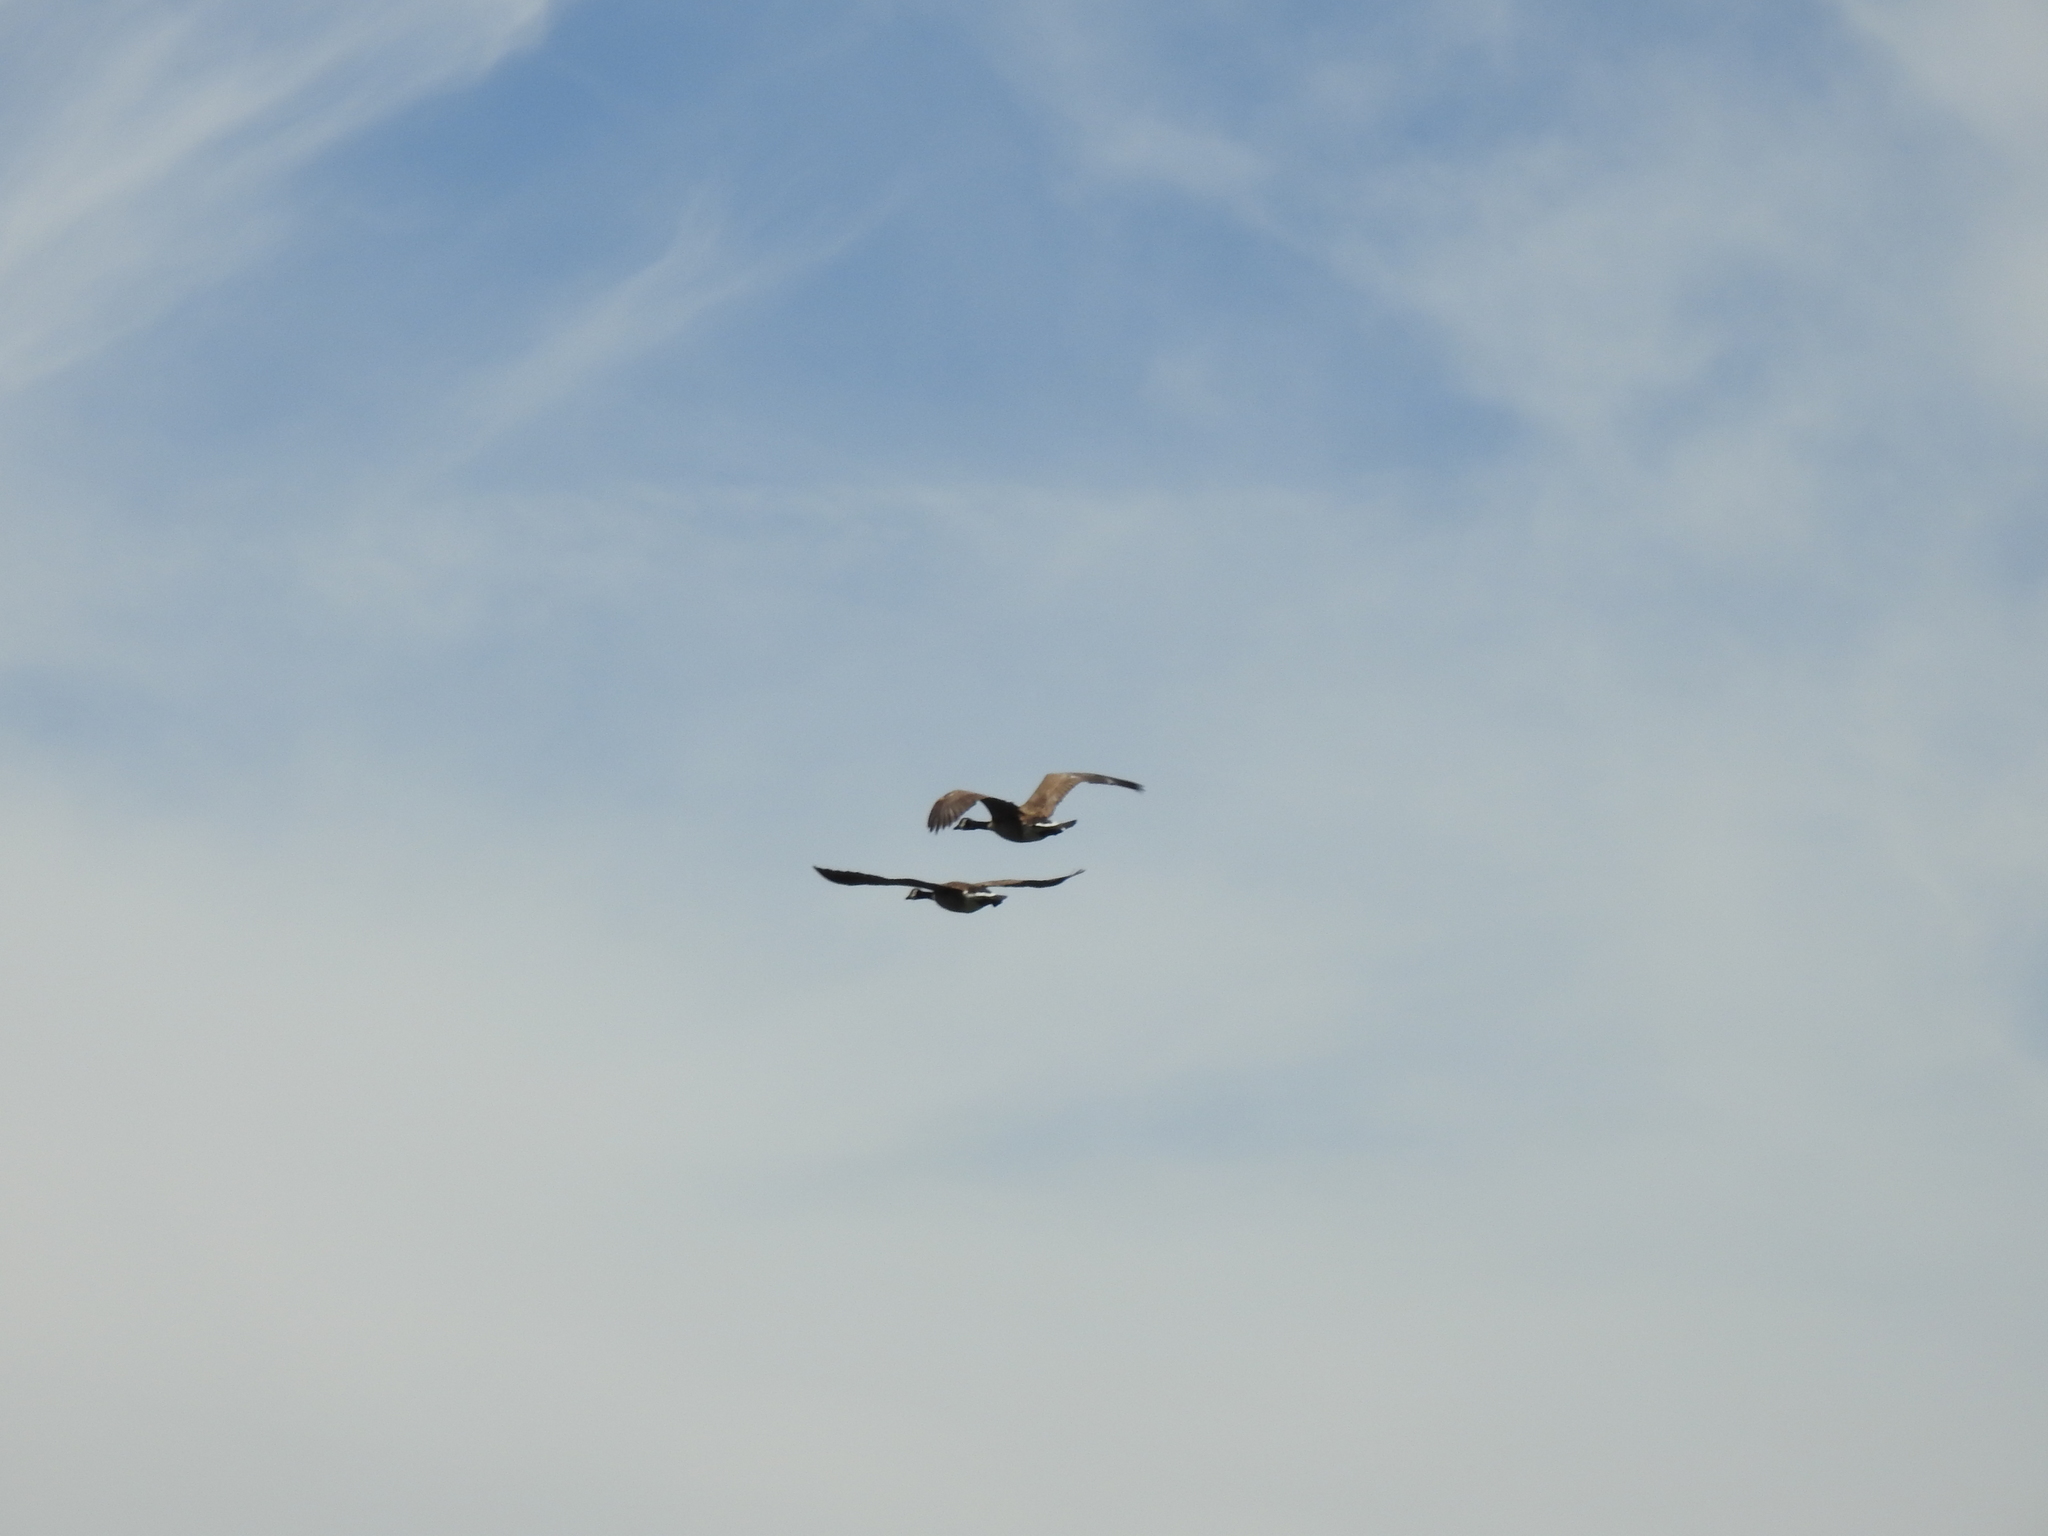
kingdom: Animalia
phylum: Chordata
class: Aves
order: Anseriformes
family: Anatidae
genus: Branta
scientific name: Branta canadensis
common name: Canada goose
